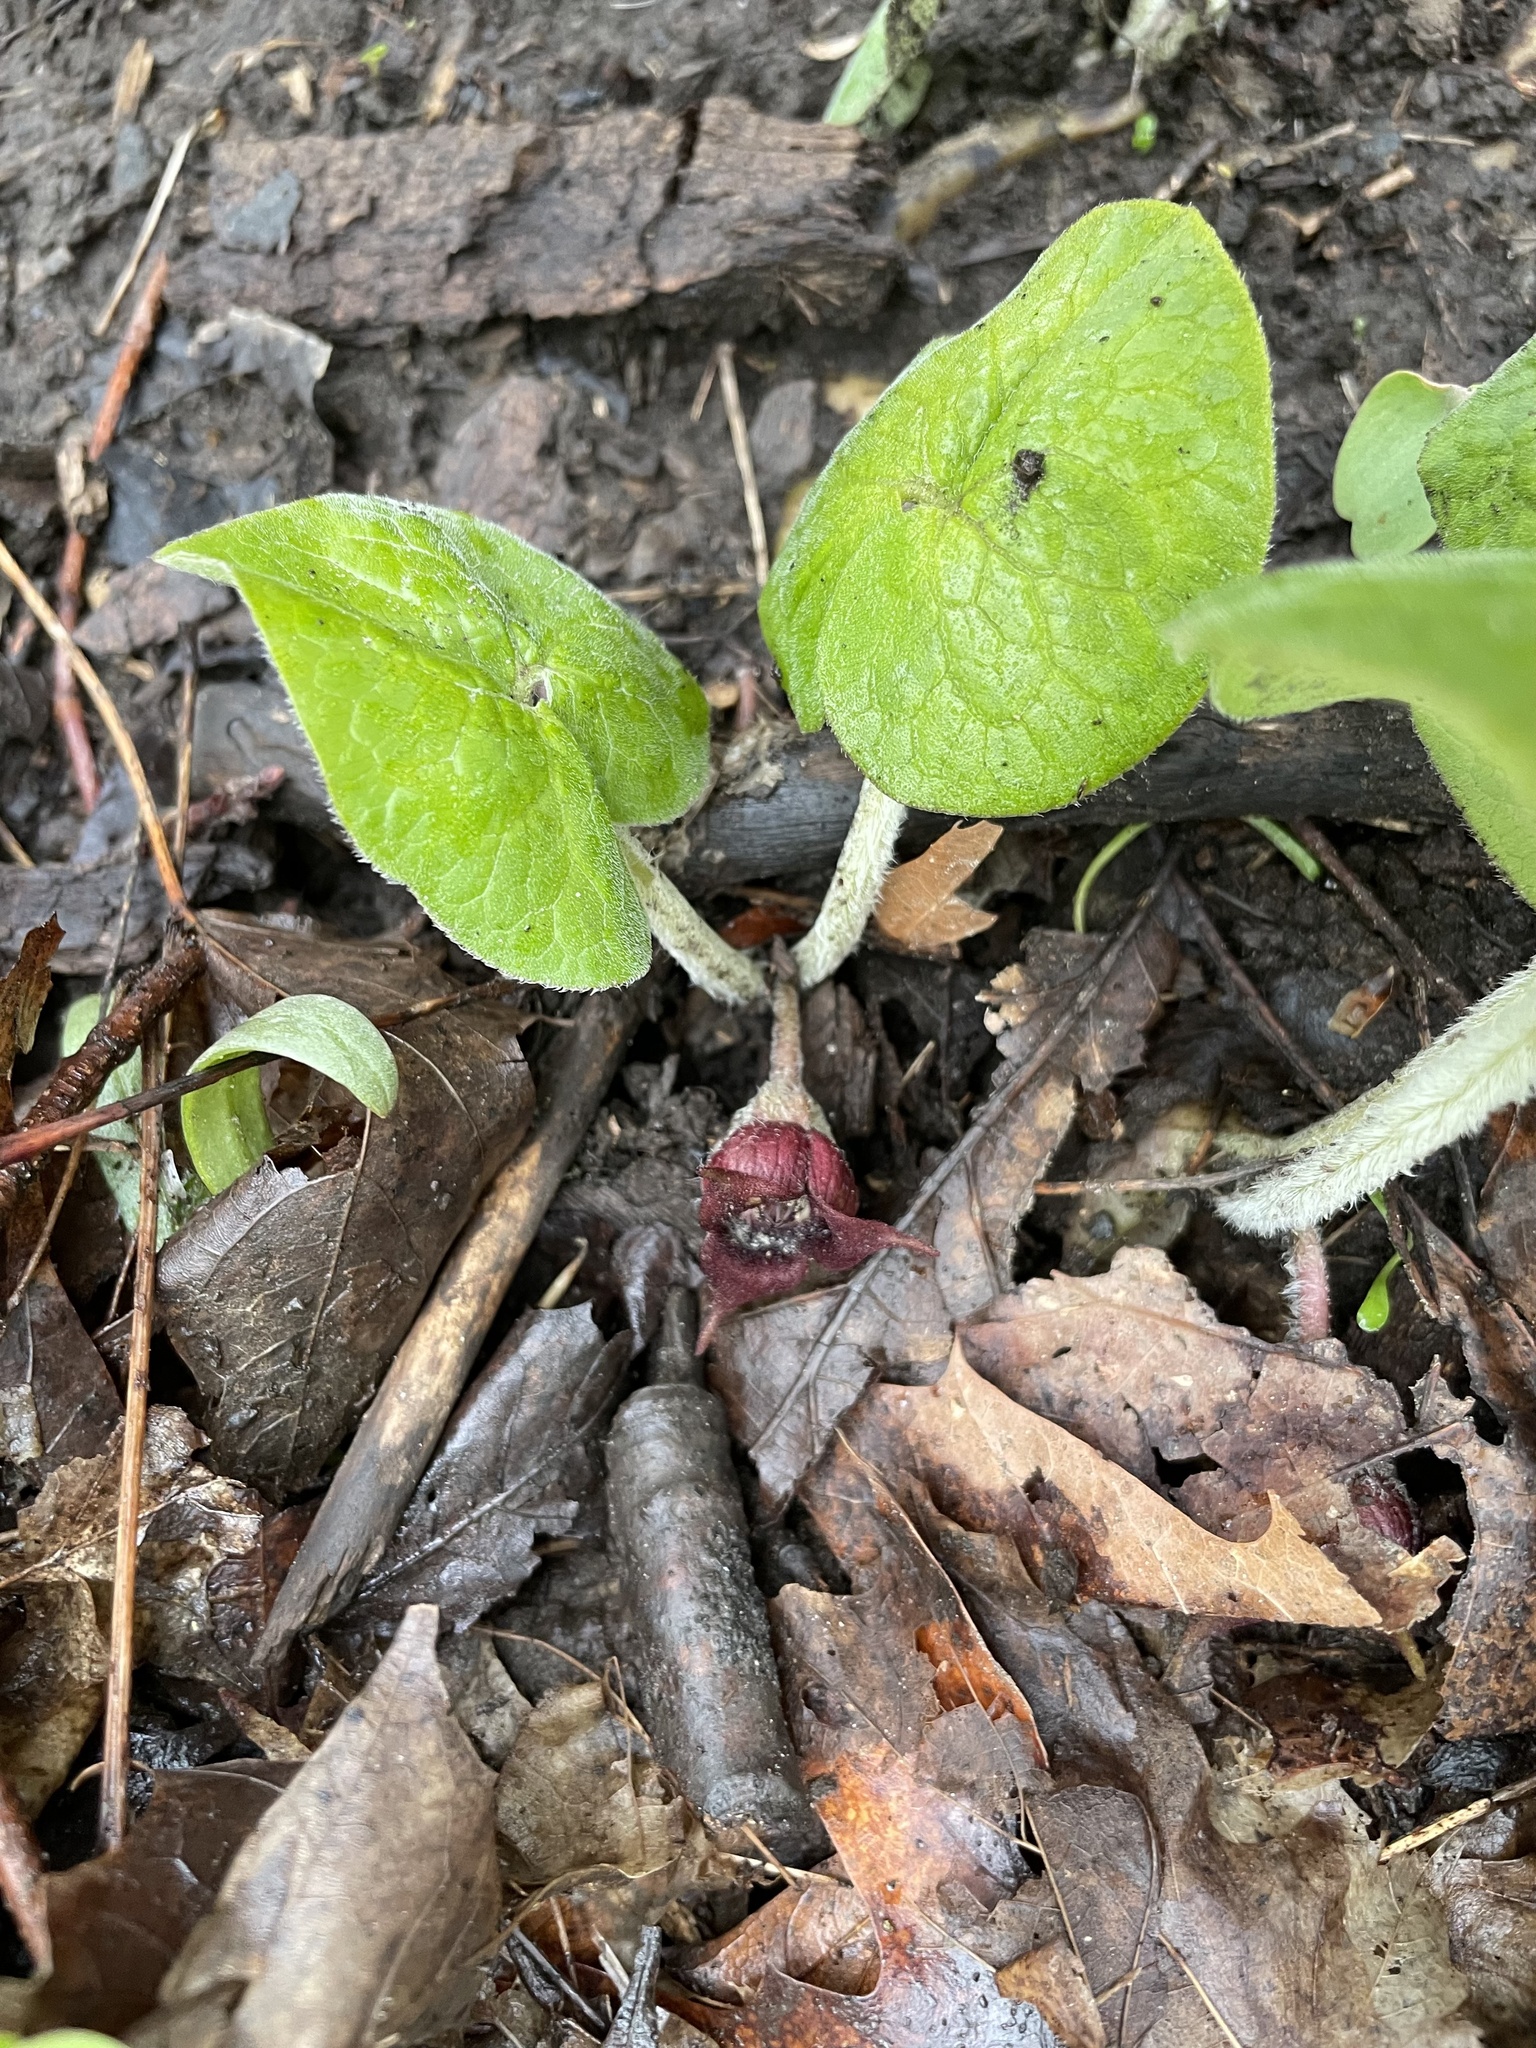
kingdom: Plantae
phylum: Tracheophyta
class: Magnoliopsida
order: Piperales
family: Aristolochiaceae
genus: Asarum
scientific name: Asarum canadense
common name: Wild ginger
